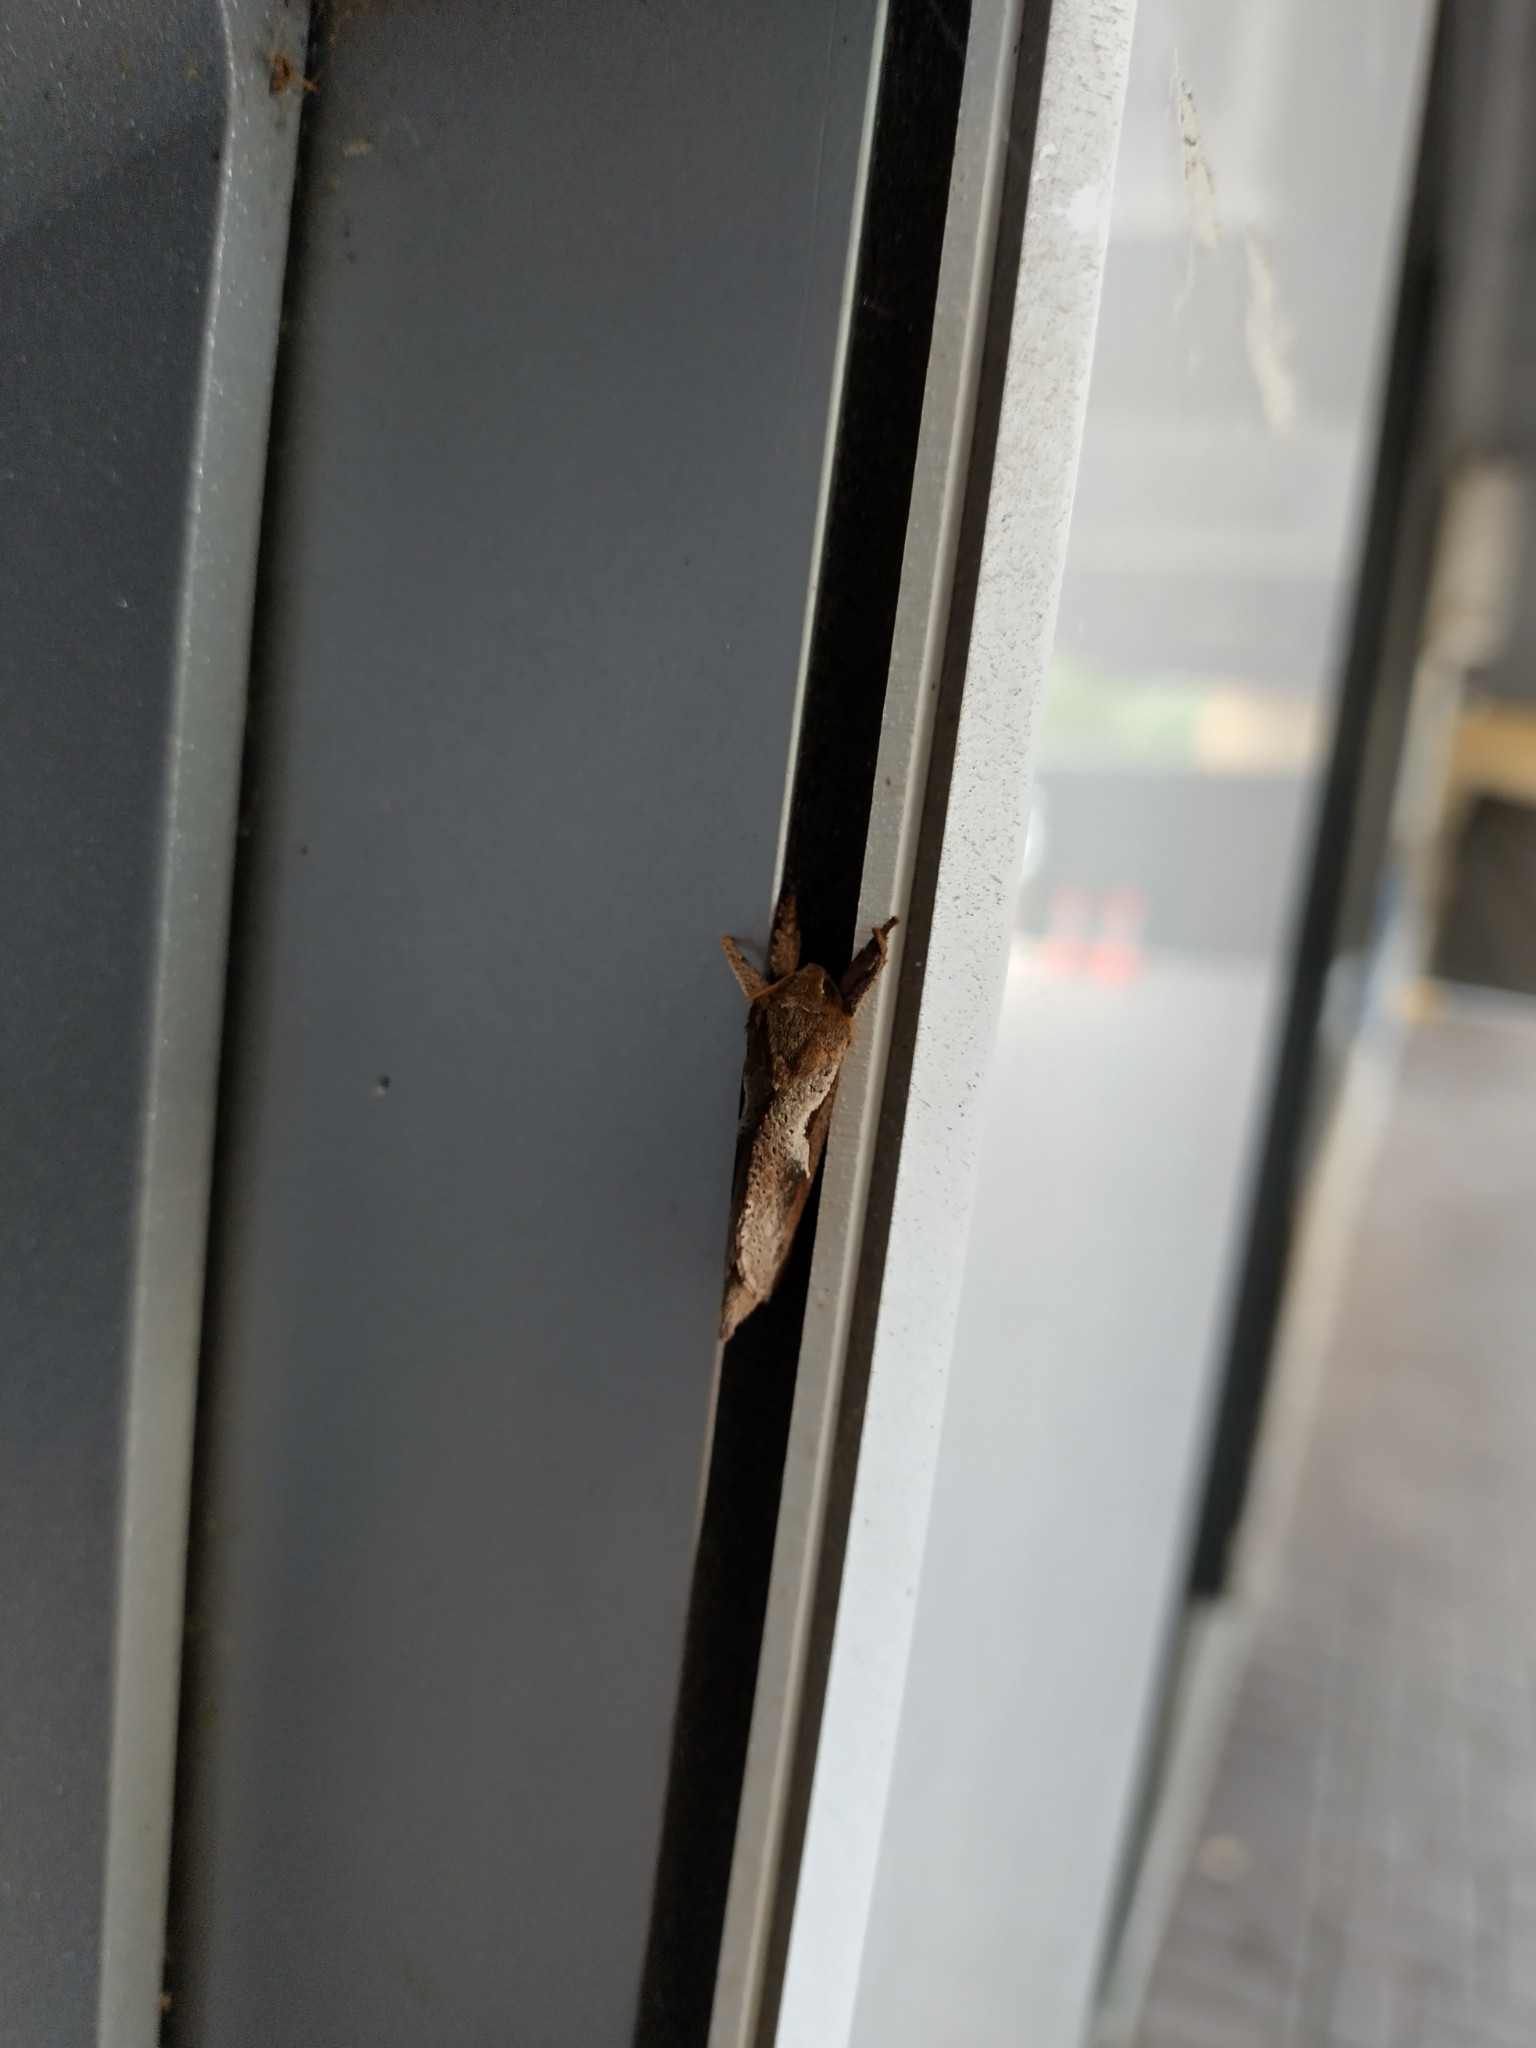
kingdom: Animalia
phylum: Arthropoda
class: Insecta
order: Lepidoptera
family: Hepialidae
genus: Elhamma
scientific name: Elhamma australasiae
